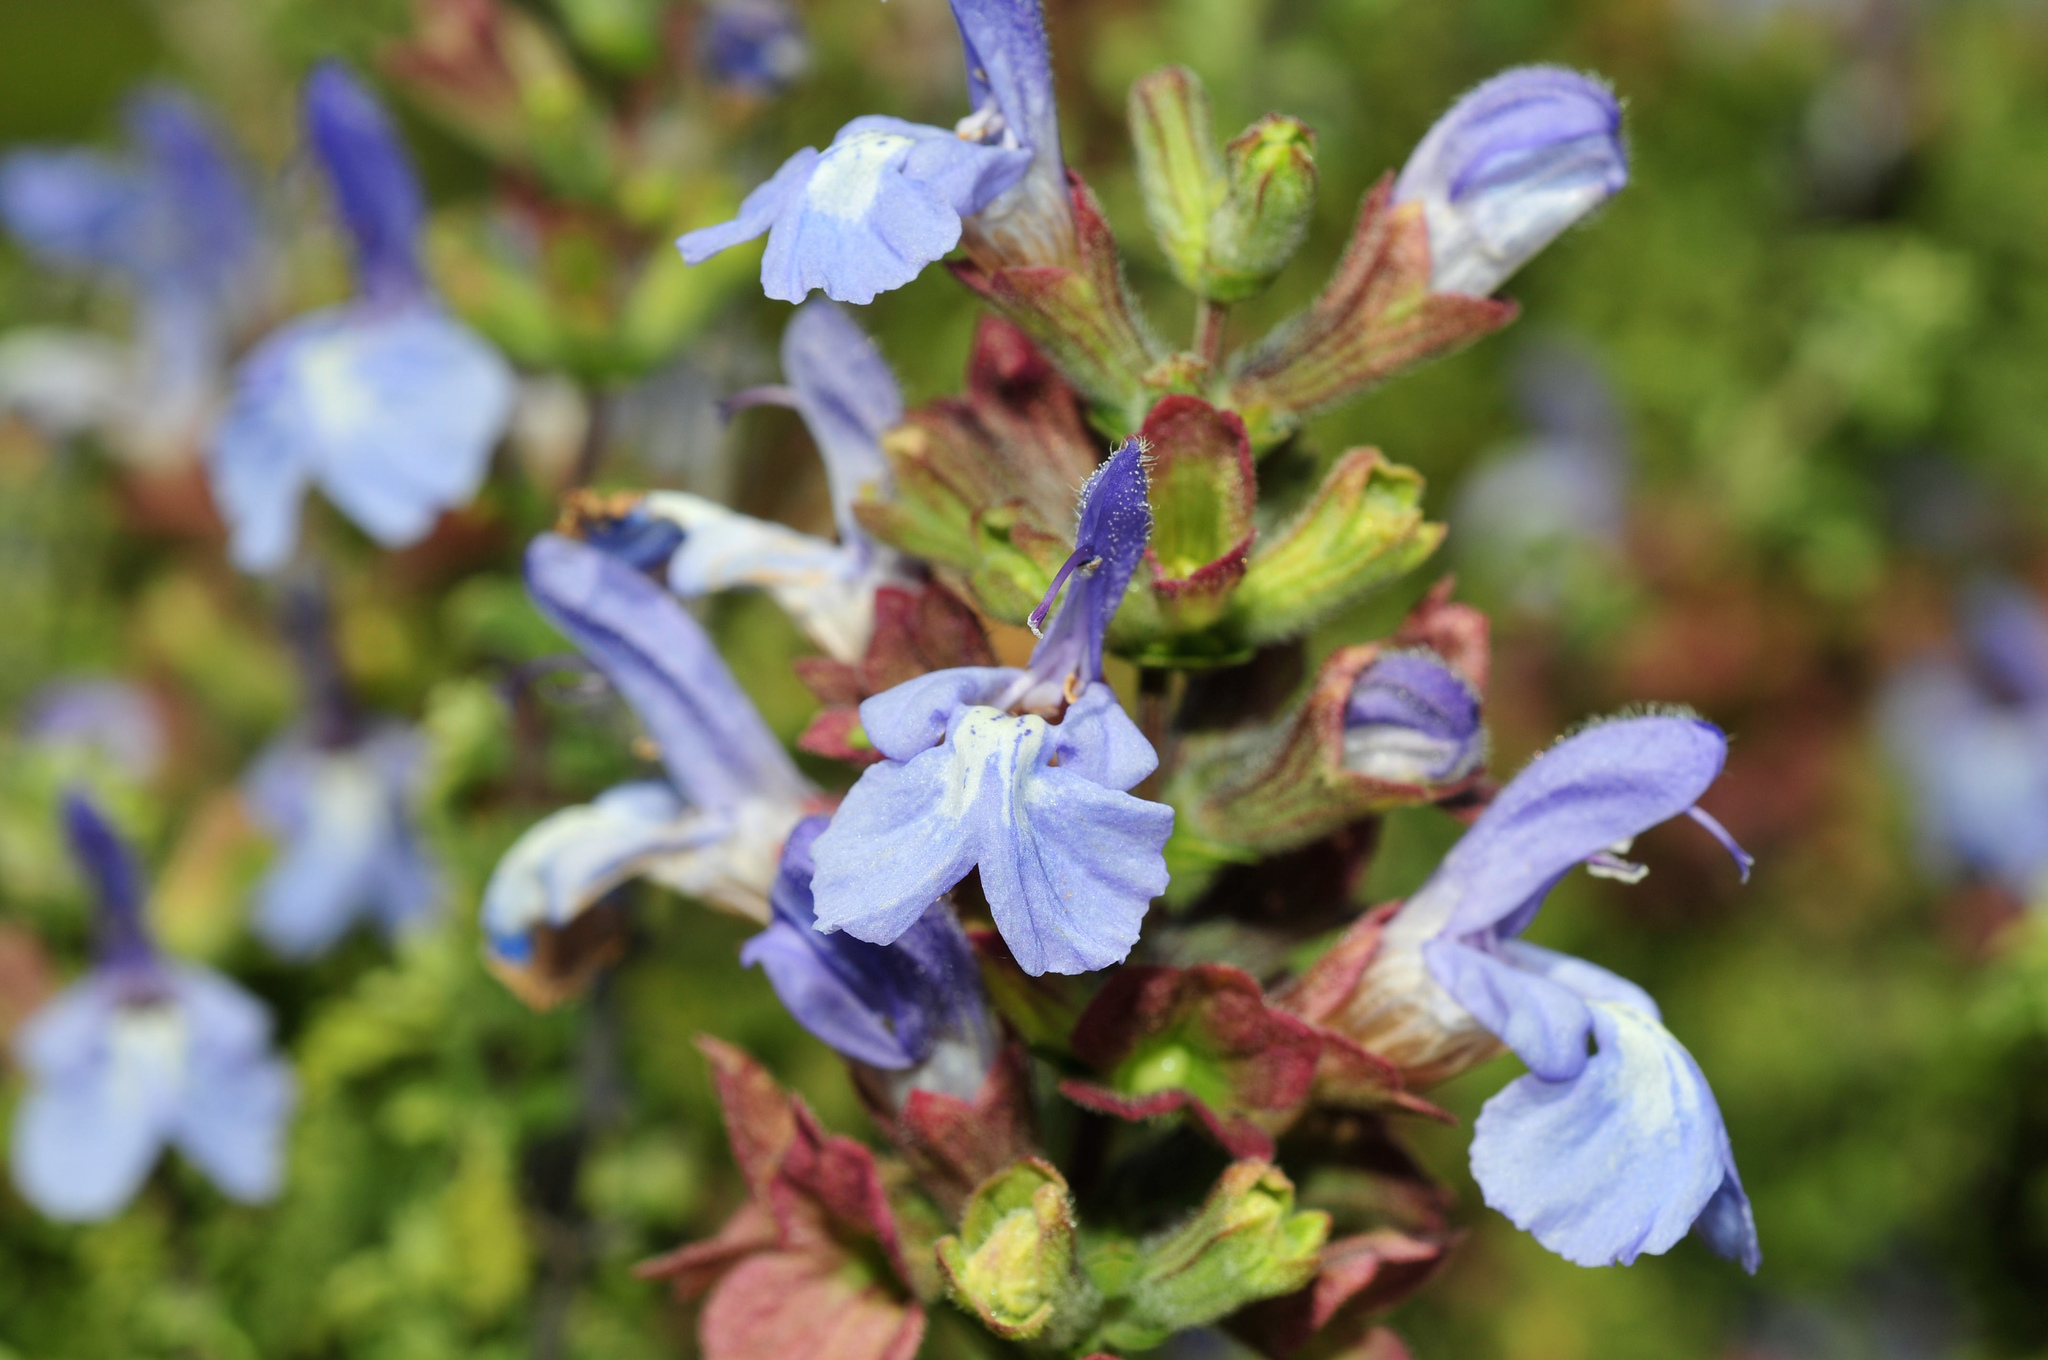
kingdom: Plantae
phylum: Tracheophyta
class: Magnoliopsida
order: Lamiales
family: Lamiaceae
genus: Salvia
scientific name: Salvia dentata
